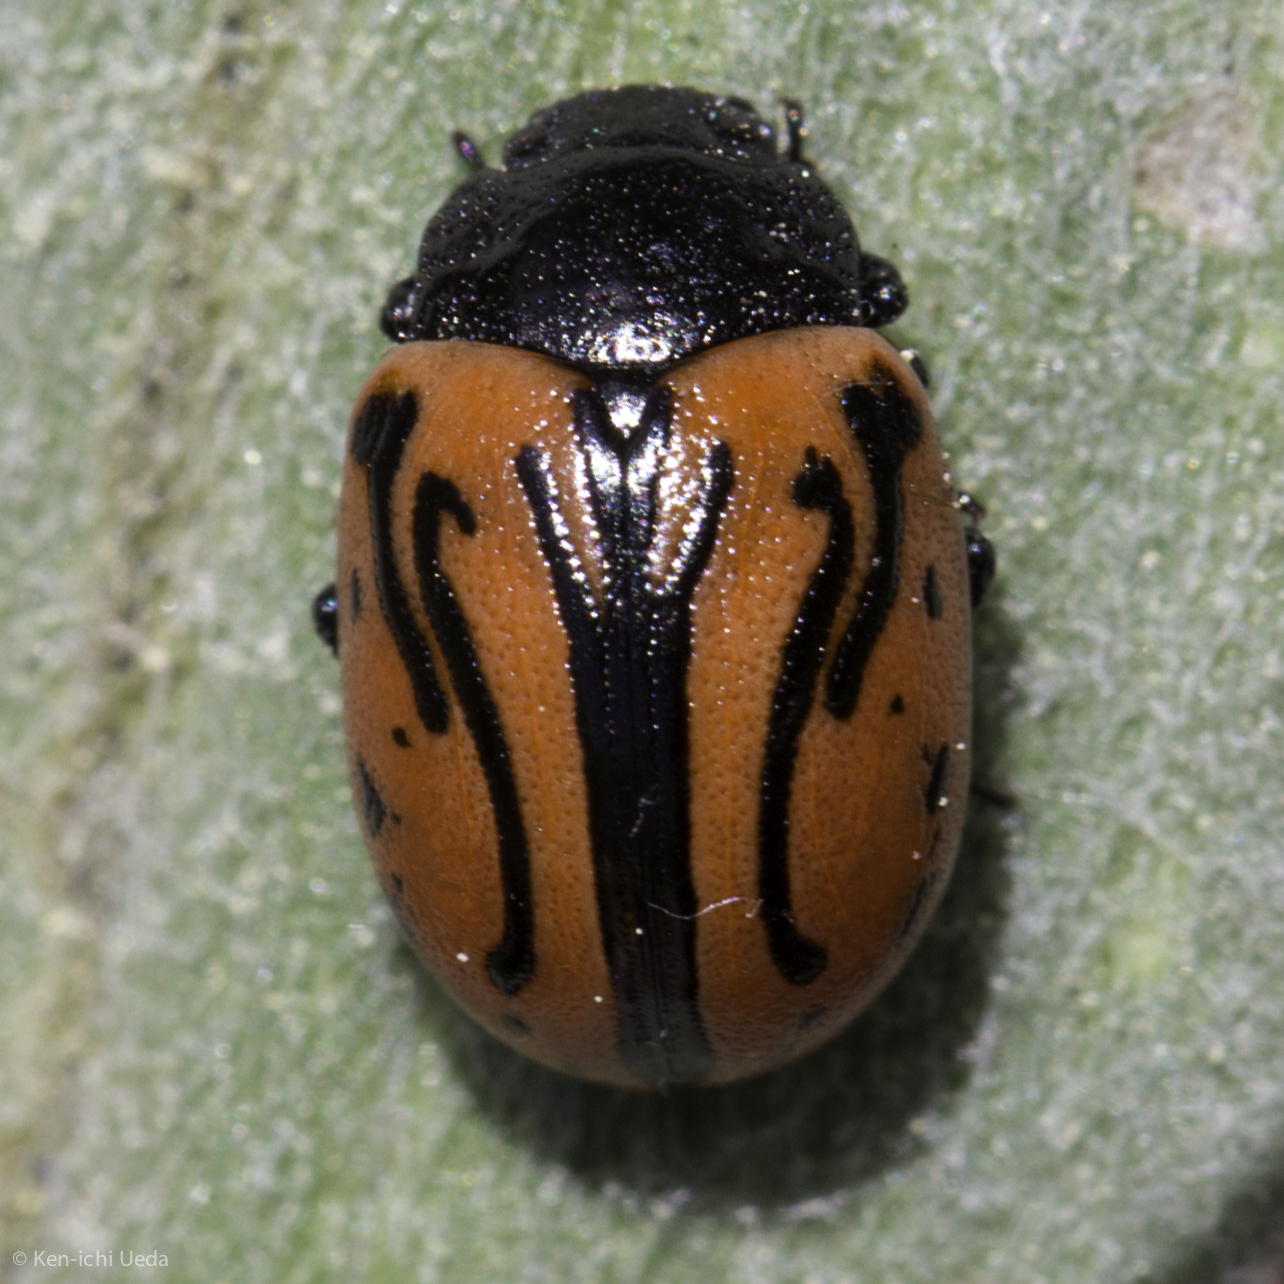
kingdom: Animalia
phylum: Arthropoda
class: Insecta
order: Coleoptera
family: Chrysomelidae
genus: Calligrapha
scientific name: Calligrapha sigmoidea
